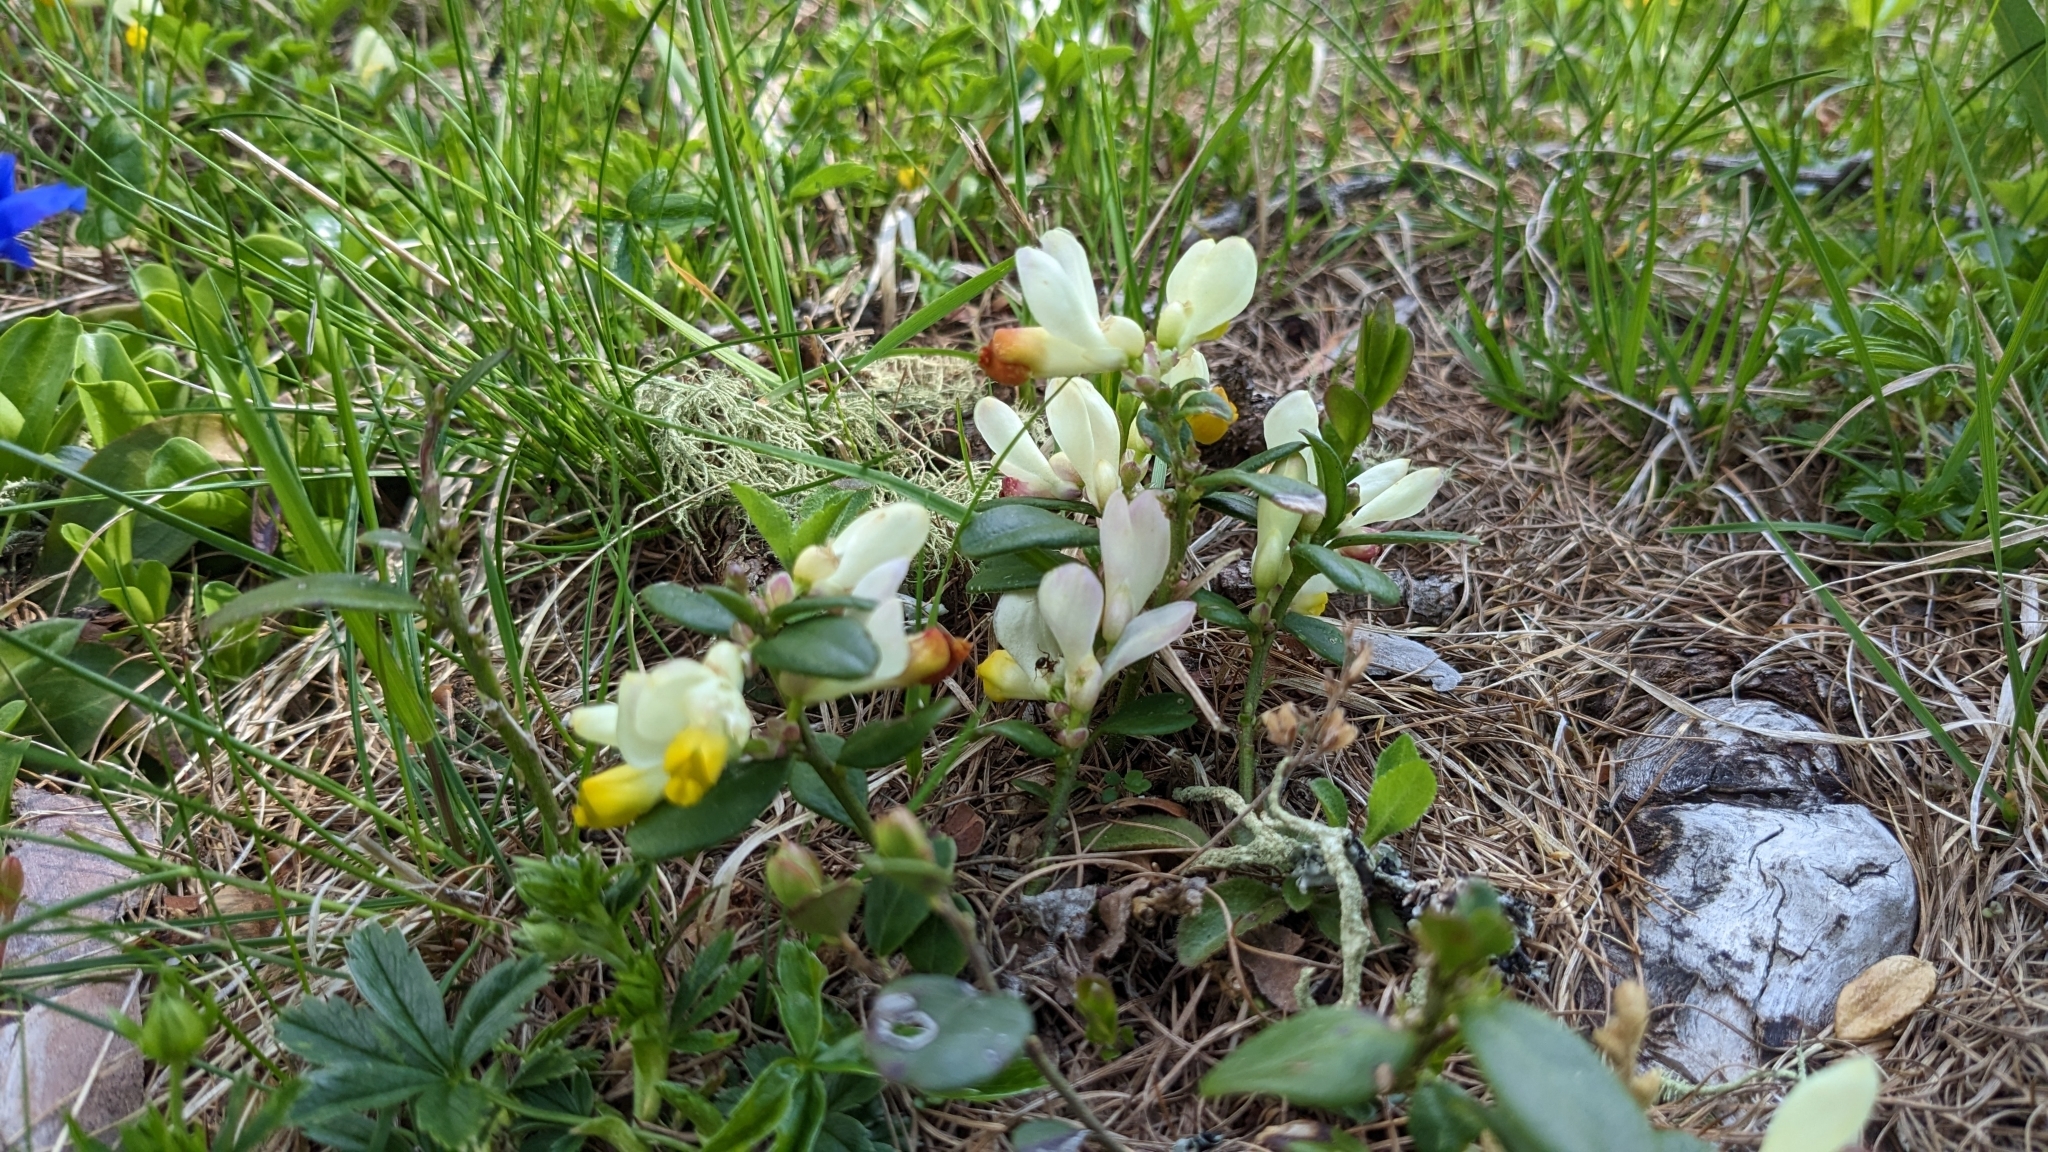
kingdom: Plantae
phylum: Tracheophyta
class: Magnoliopsida
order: Fabales
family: Polygalaceae
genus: Polygaloides
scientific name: Polygaloides chamaebuxus
